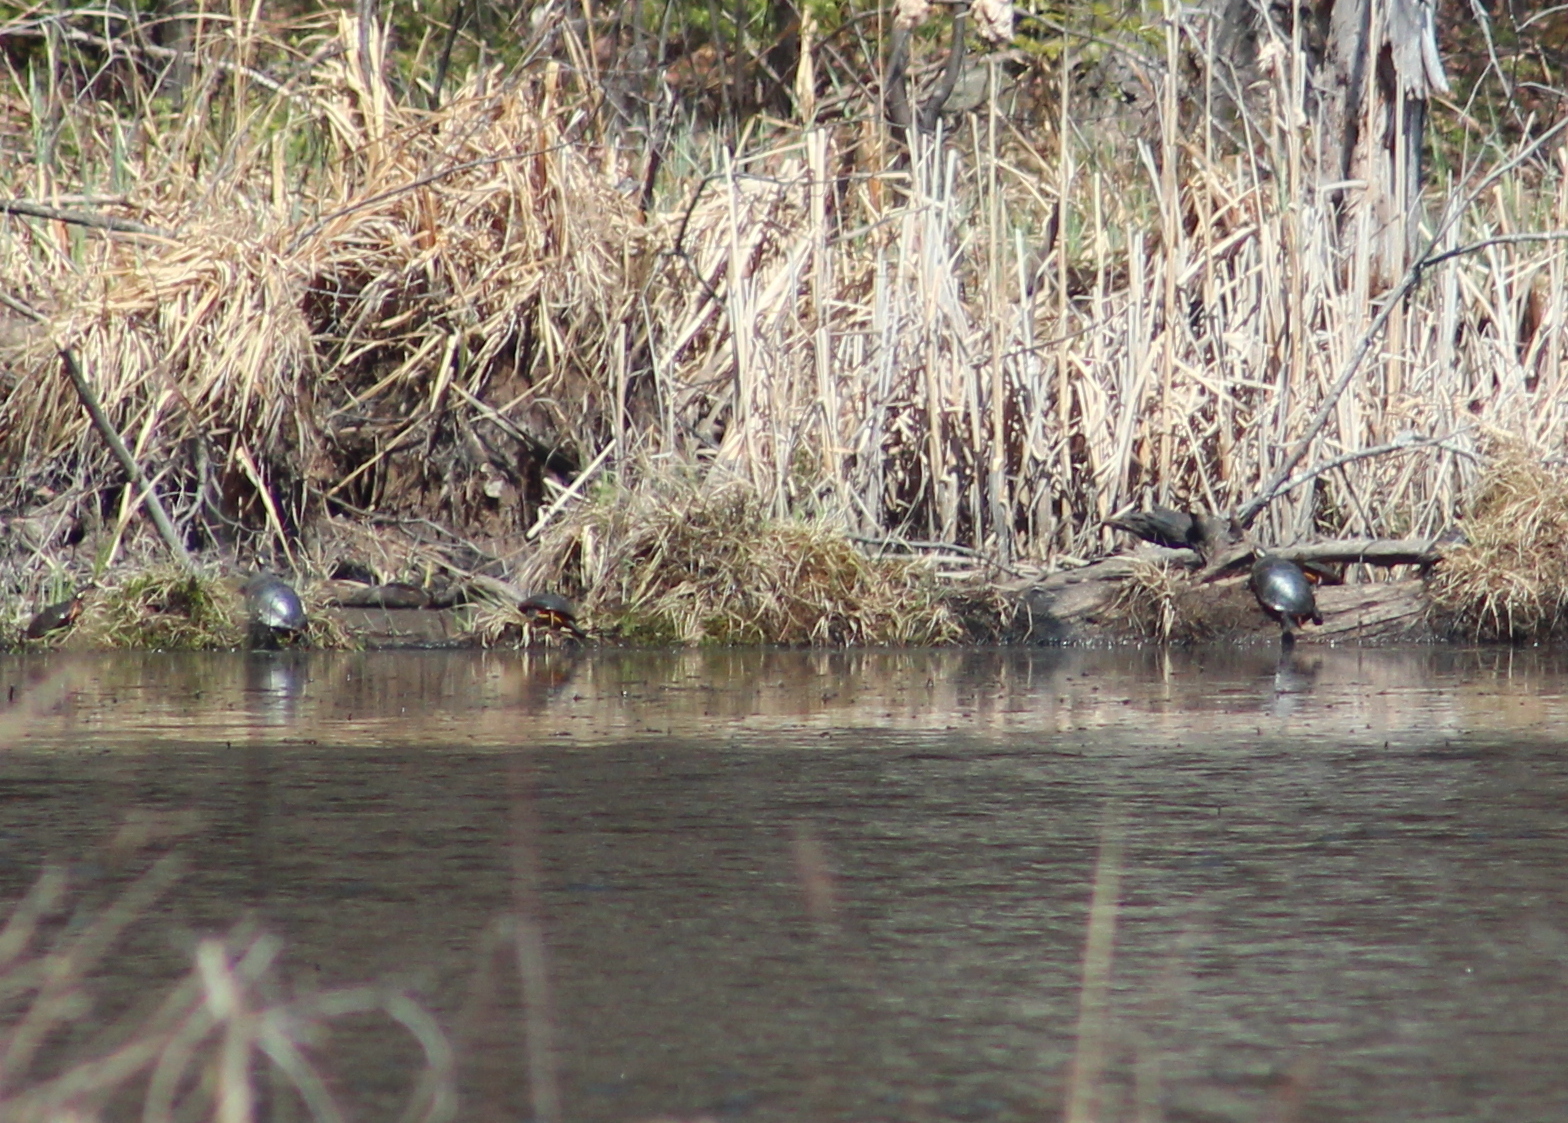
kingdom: Animalia
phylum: Chordata
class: Testudines
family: Emydidae
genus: Chrysemys
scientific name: Chrysemys picta
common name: Painted turtle
